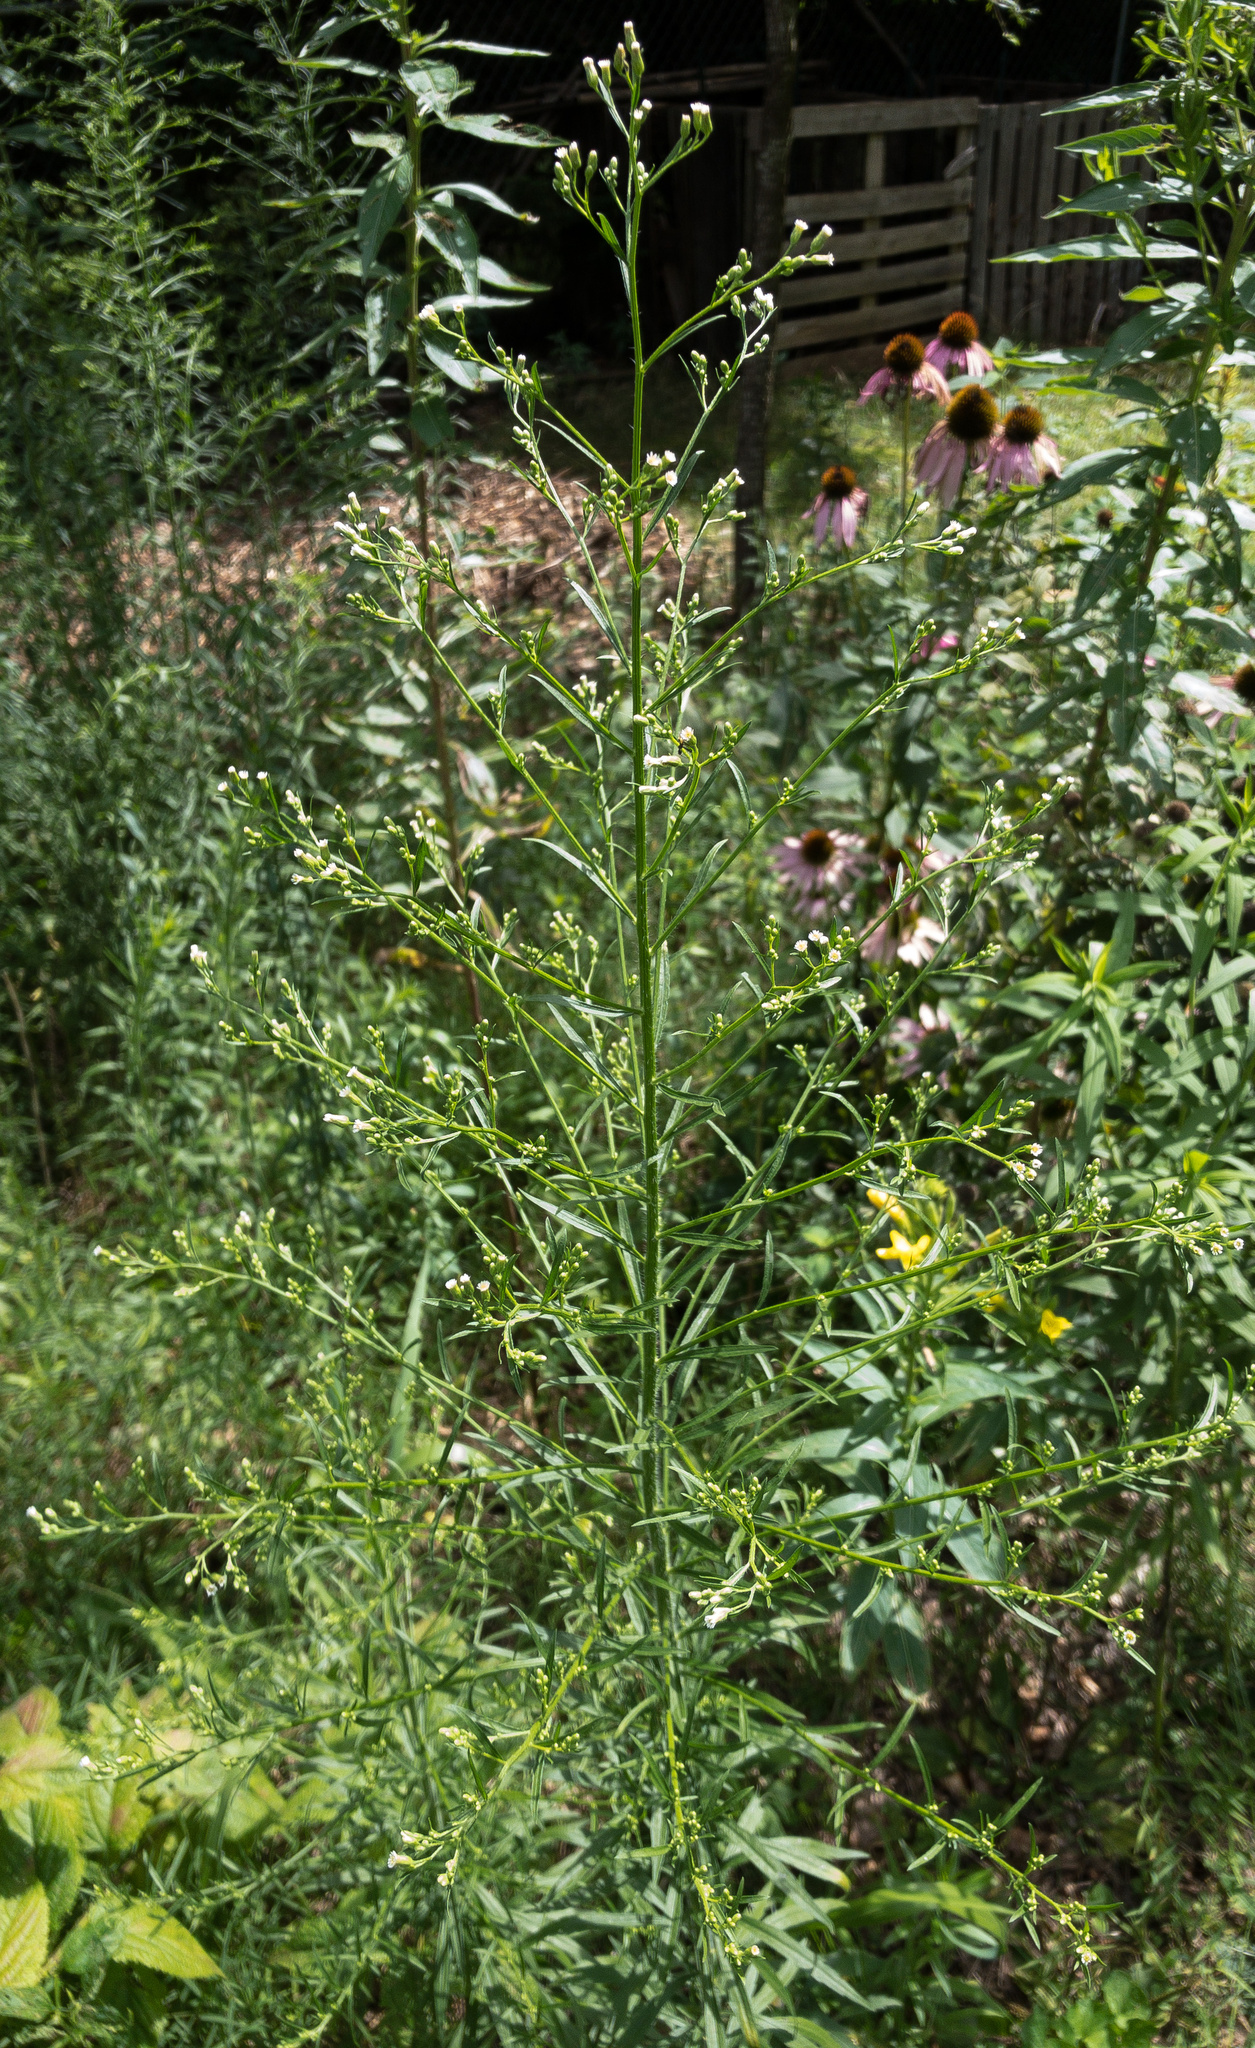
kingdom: Plantae
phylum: Tracheophyta
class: Magnoliopsida
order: Asterales
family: Asteraceae
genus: Erigeron
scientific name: Erigeron canadensis
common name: Canadian fleabane
